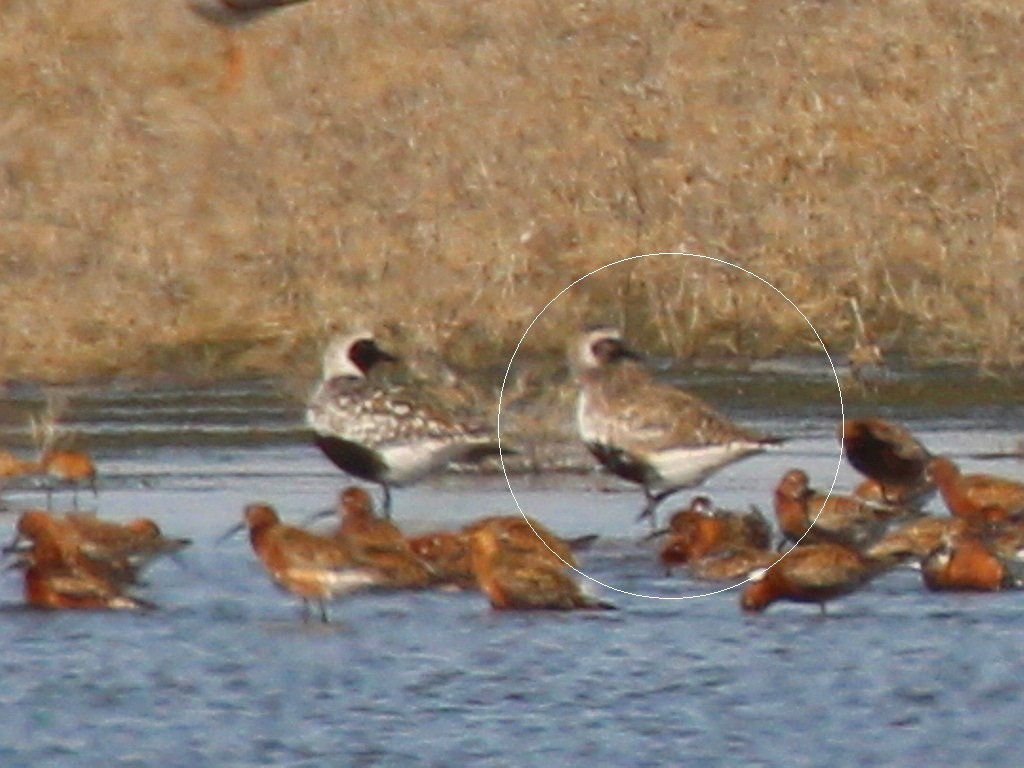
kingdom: Animalia
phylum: Chordata
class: Aves
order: Charadriiformes
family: Charadriidae
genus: Pluvialis
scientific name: Pluvialis apricaria
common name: European golden plover
